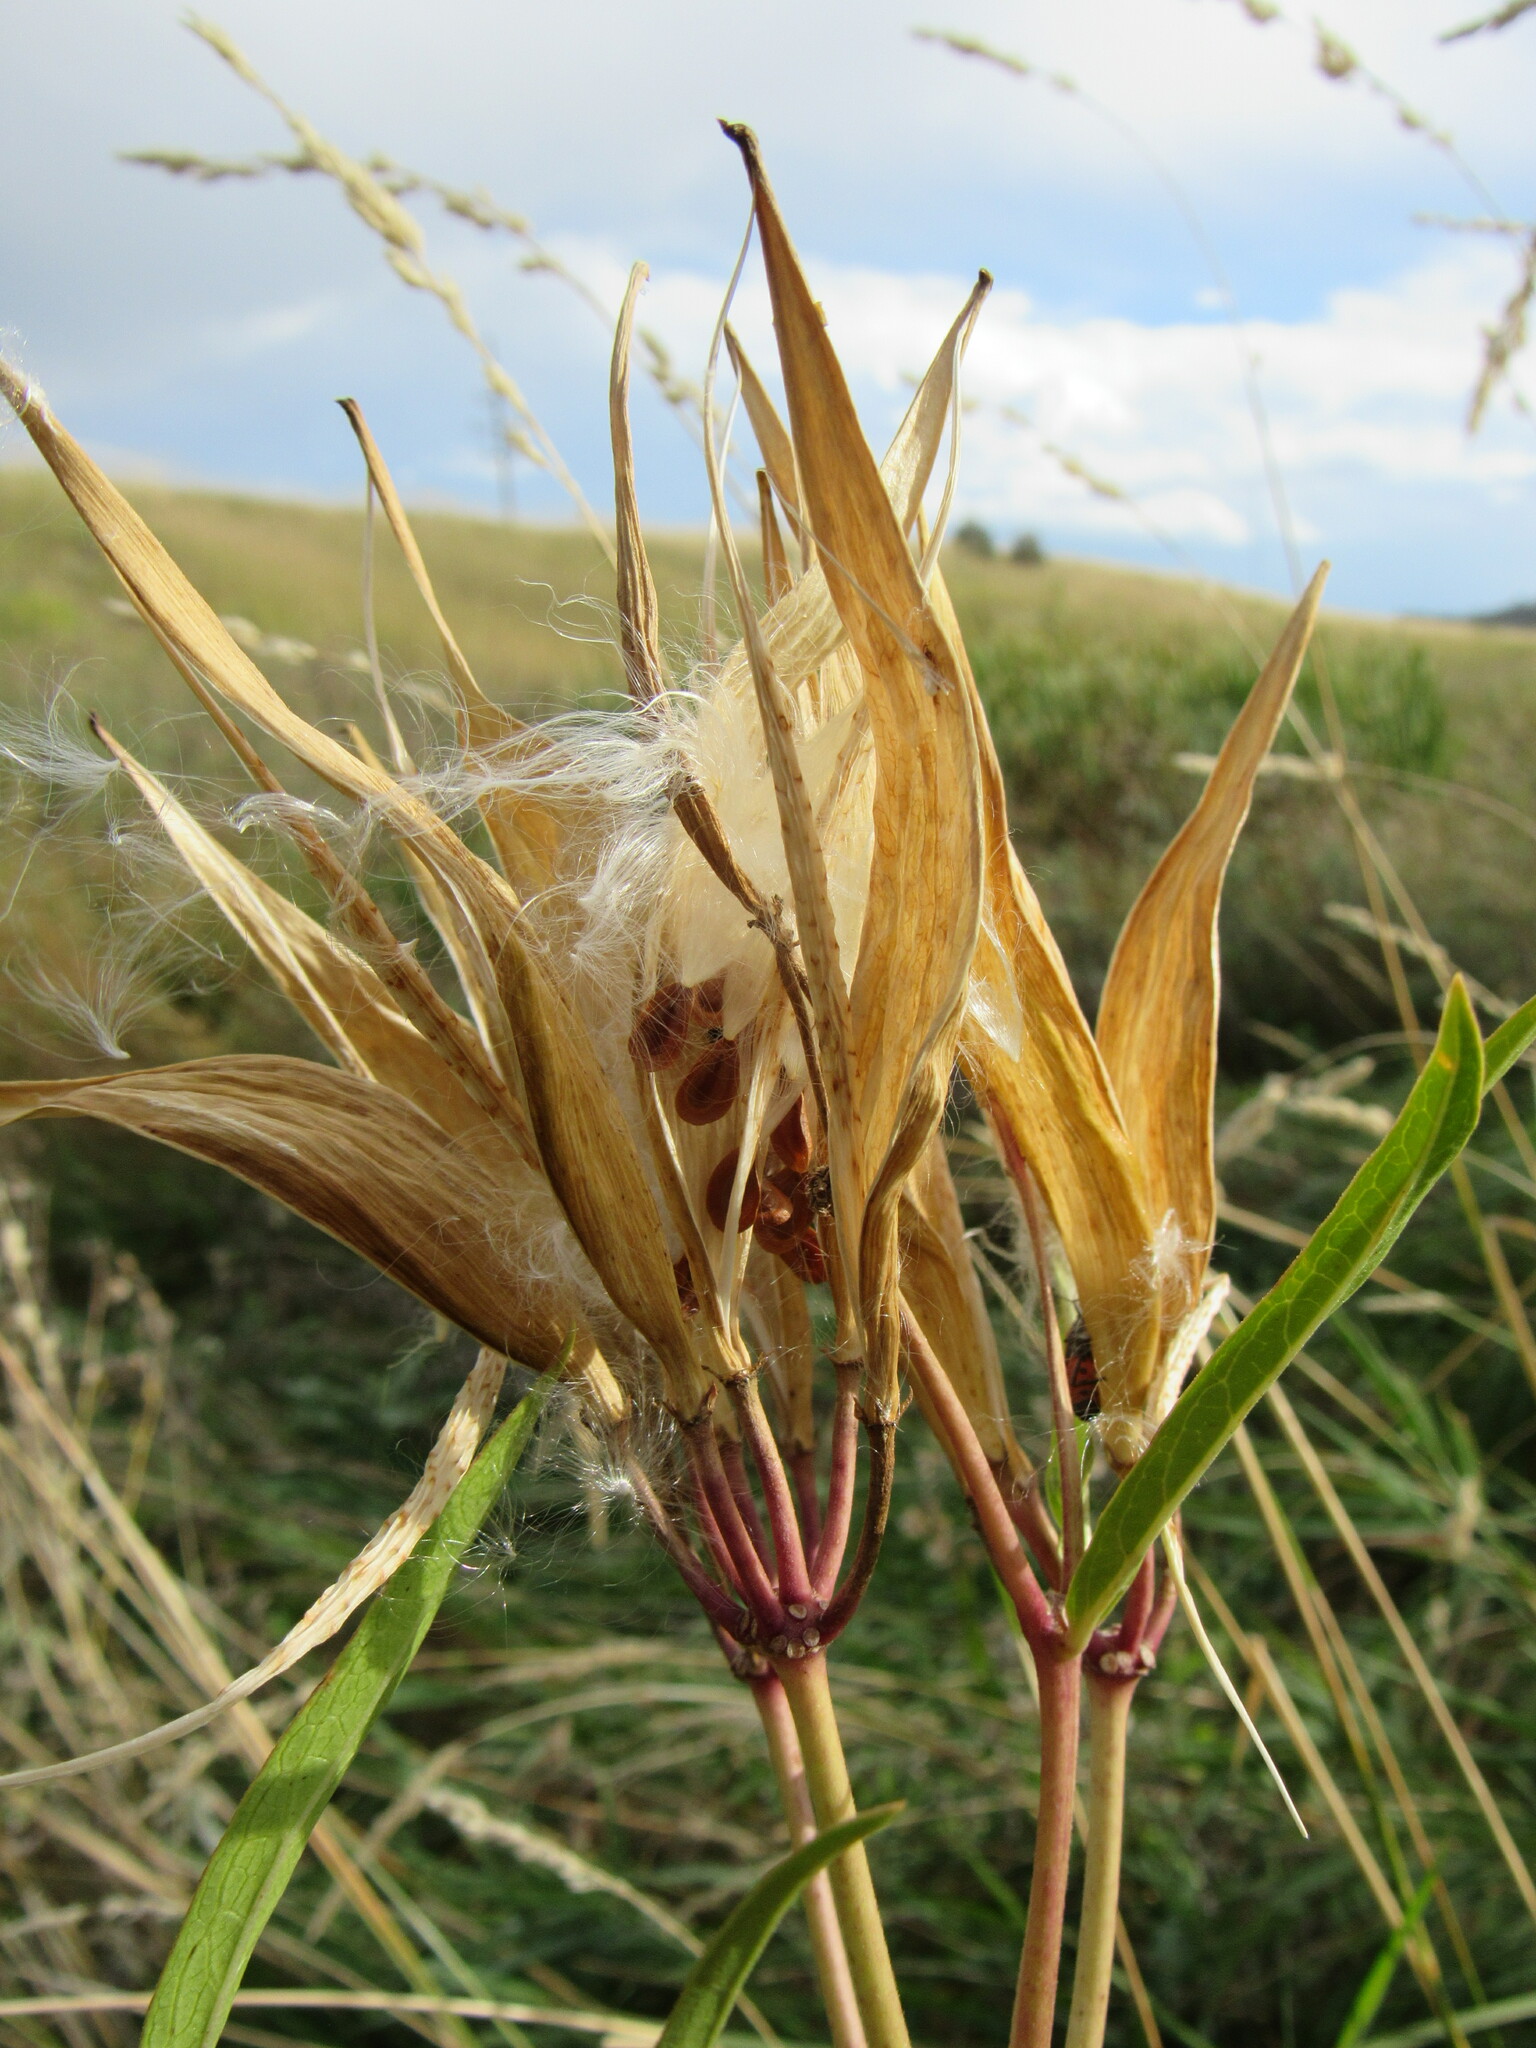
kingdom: Plantae
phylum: Tracheophyta
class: Magnoliopsida
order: Gentianales
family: Apocynaceae
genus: Asclepias
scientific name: Asclepias incarnata
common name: Swamp milkweed
